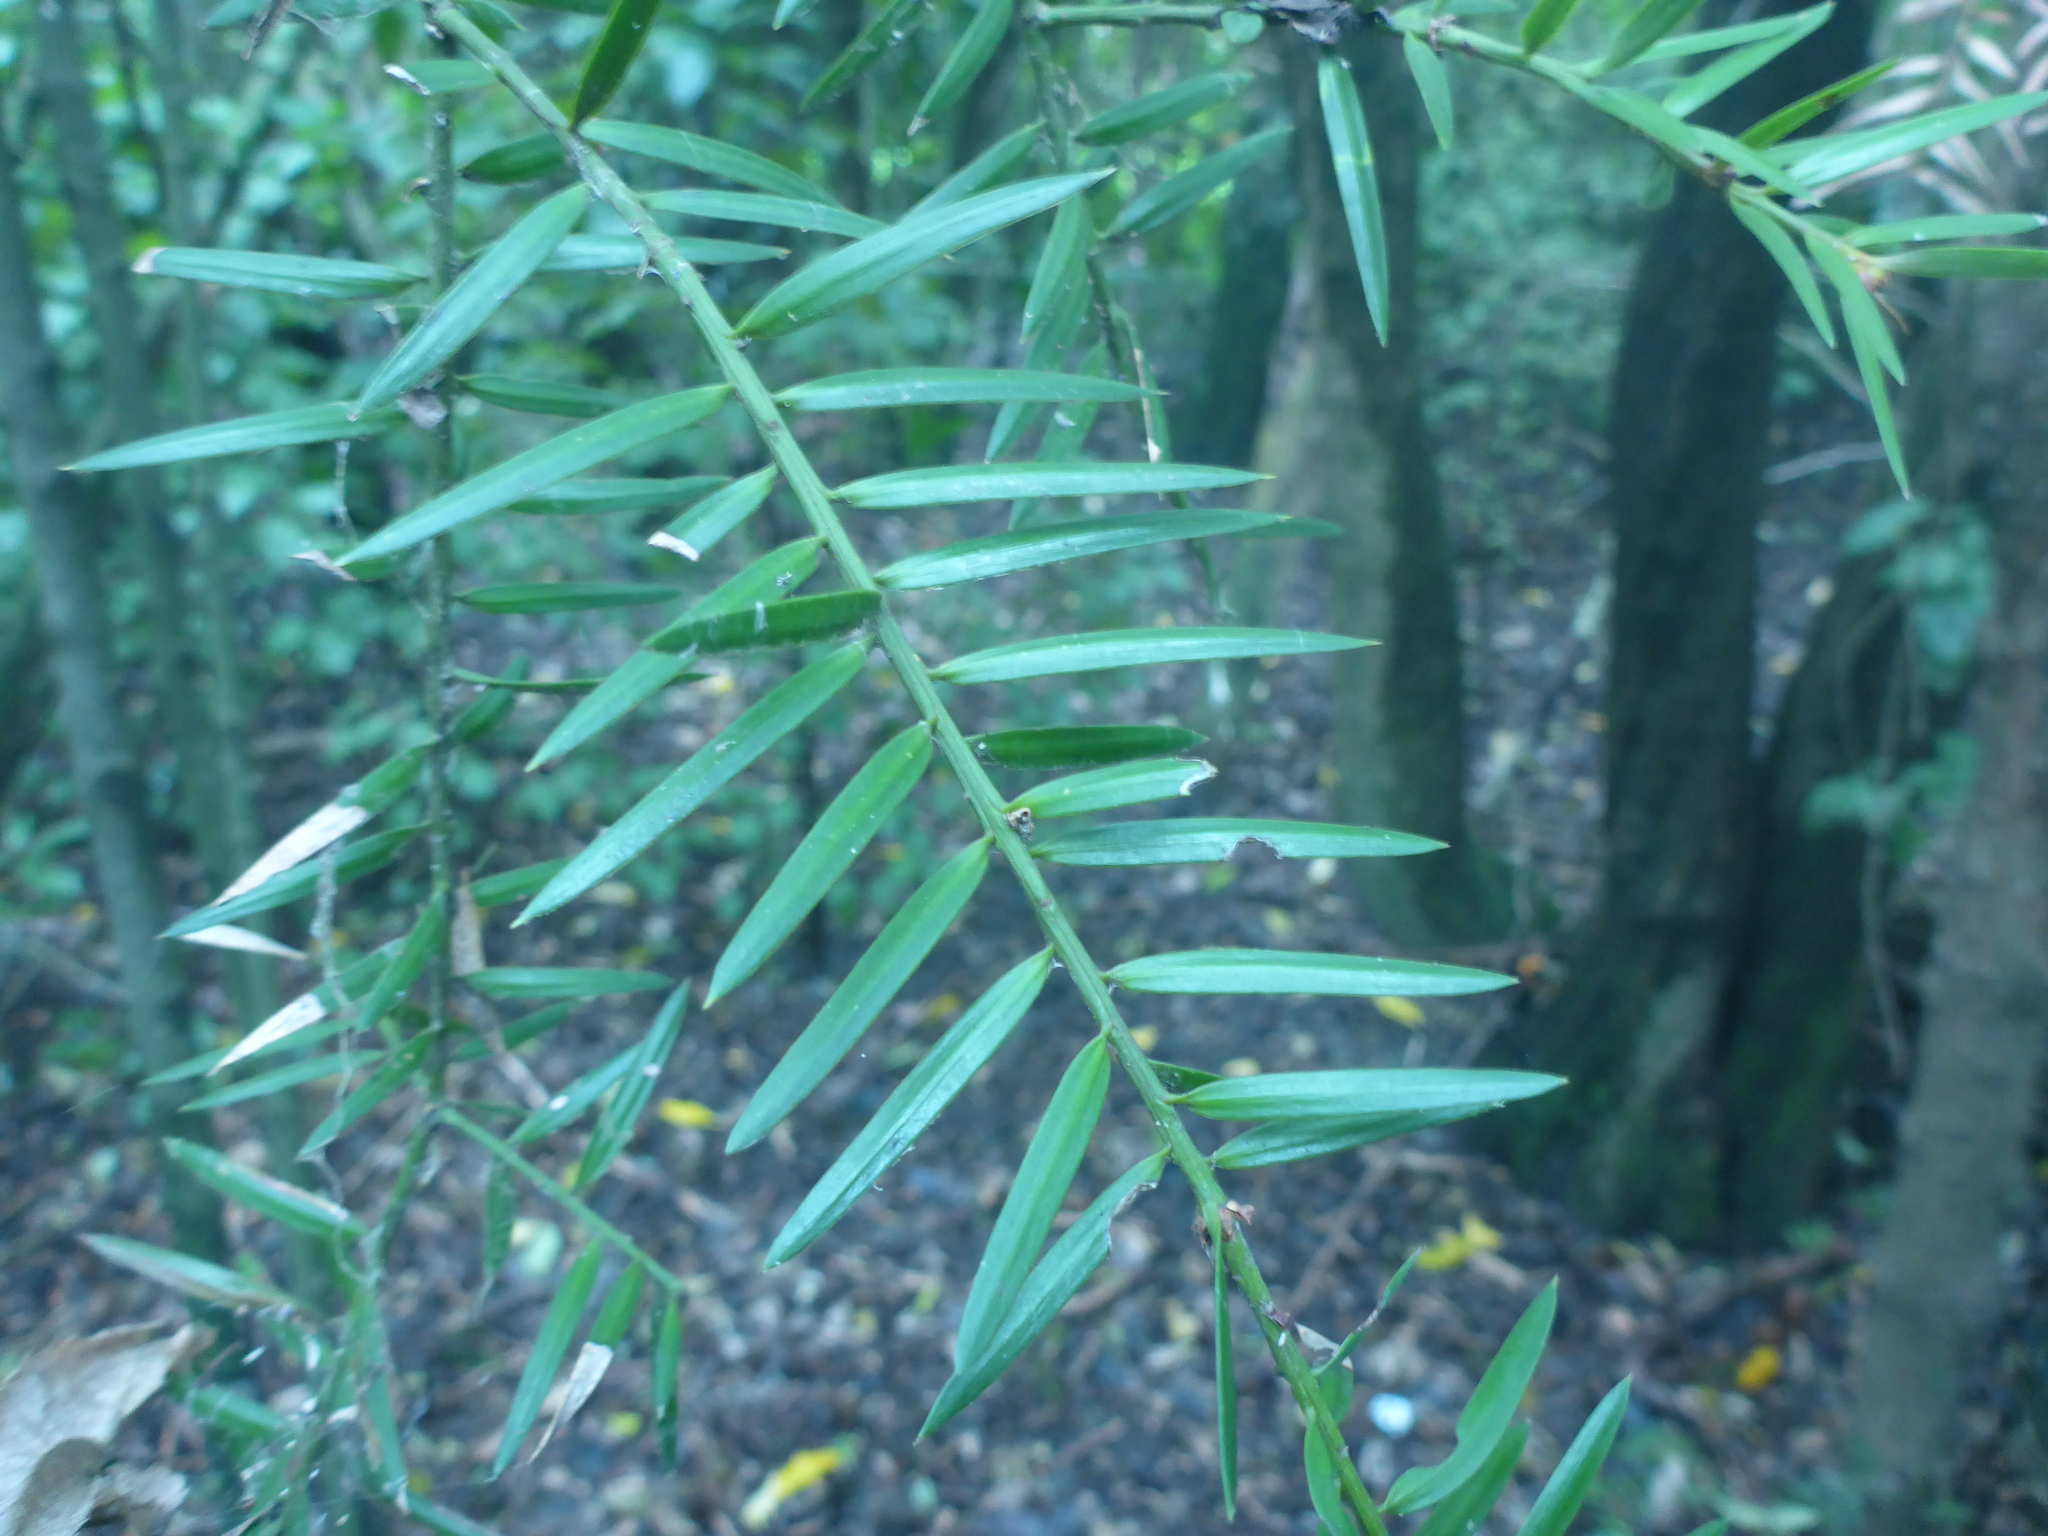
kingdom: Plantae
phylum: Tracheophyta
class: Pinopsida
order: Pinales
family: Podocarpaceae
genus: Podocarpus
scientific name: Podocarpus laetus
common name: Hall's totara
